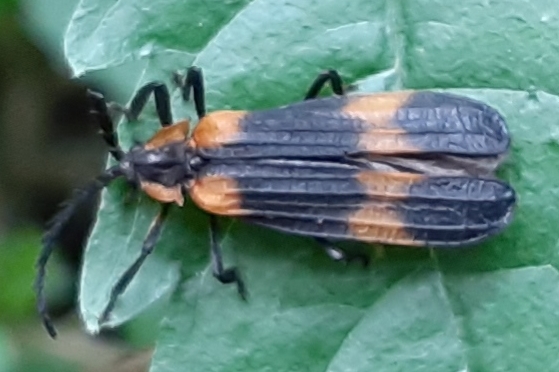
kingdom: Animalia
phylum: Arthropoda
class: Insecta
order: Coleoptera
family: Lycidae
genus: Calopteron
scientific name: Calopteron reticulatum
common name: Banded net-winged beetle
